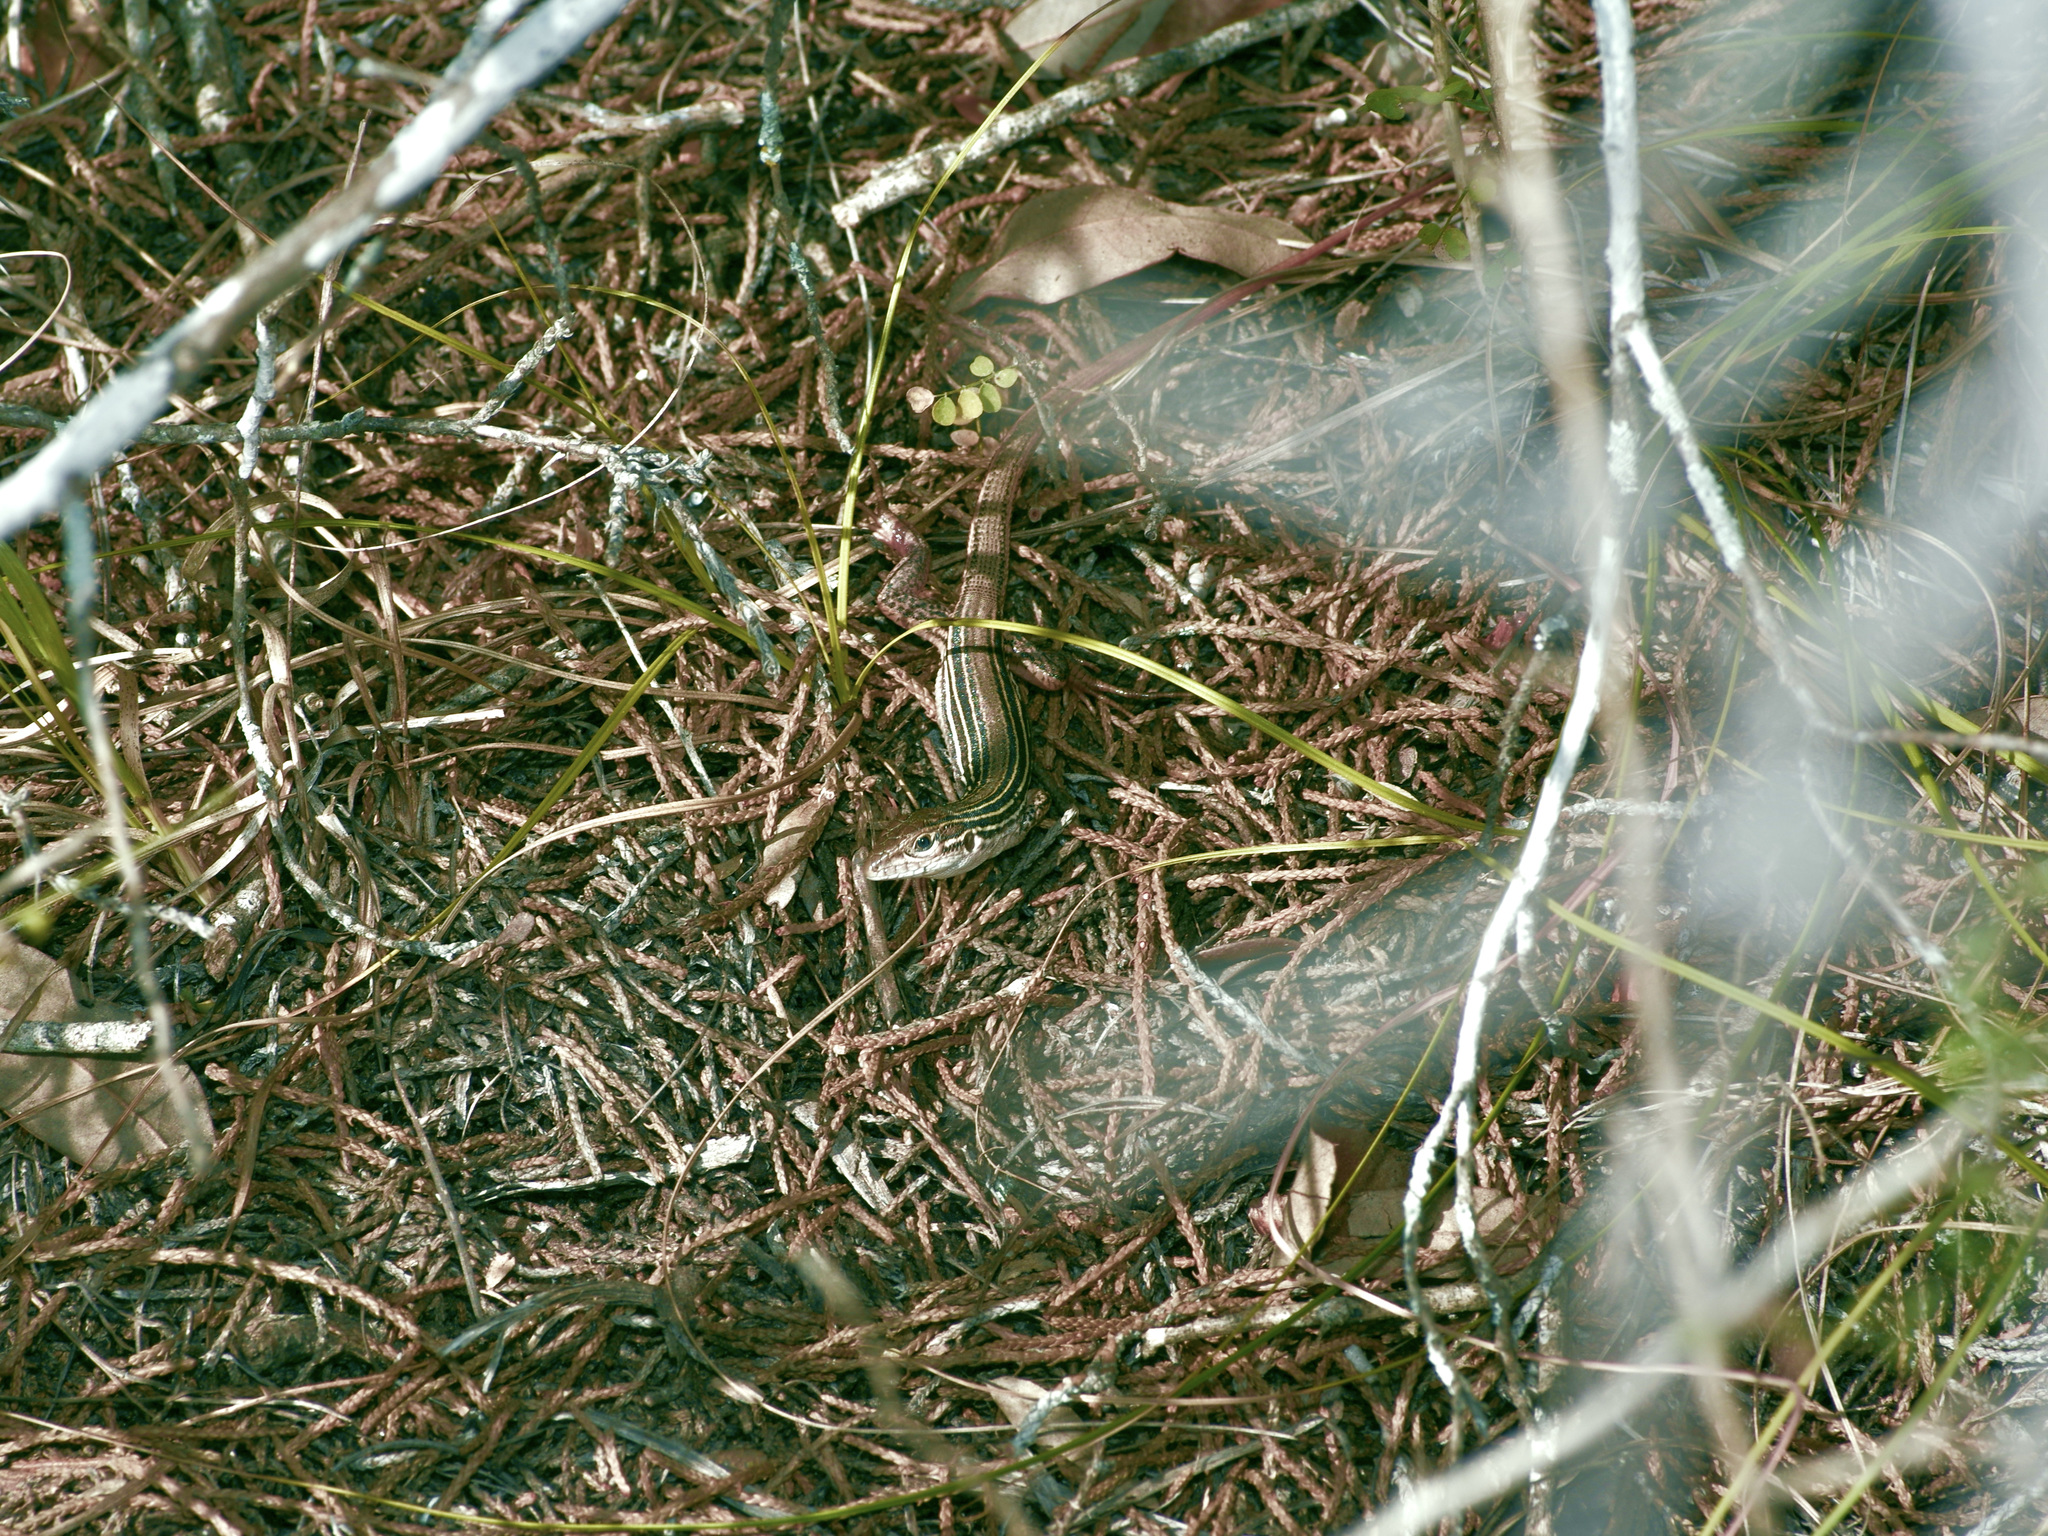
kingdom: Animalia
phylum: Chordata
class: Squamata
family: Teiidae
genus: Aspidoscelis
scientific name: Aspidoscelis gularis
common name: Eastern spotted whiptail
